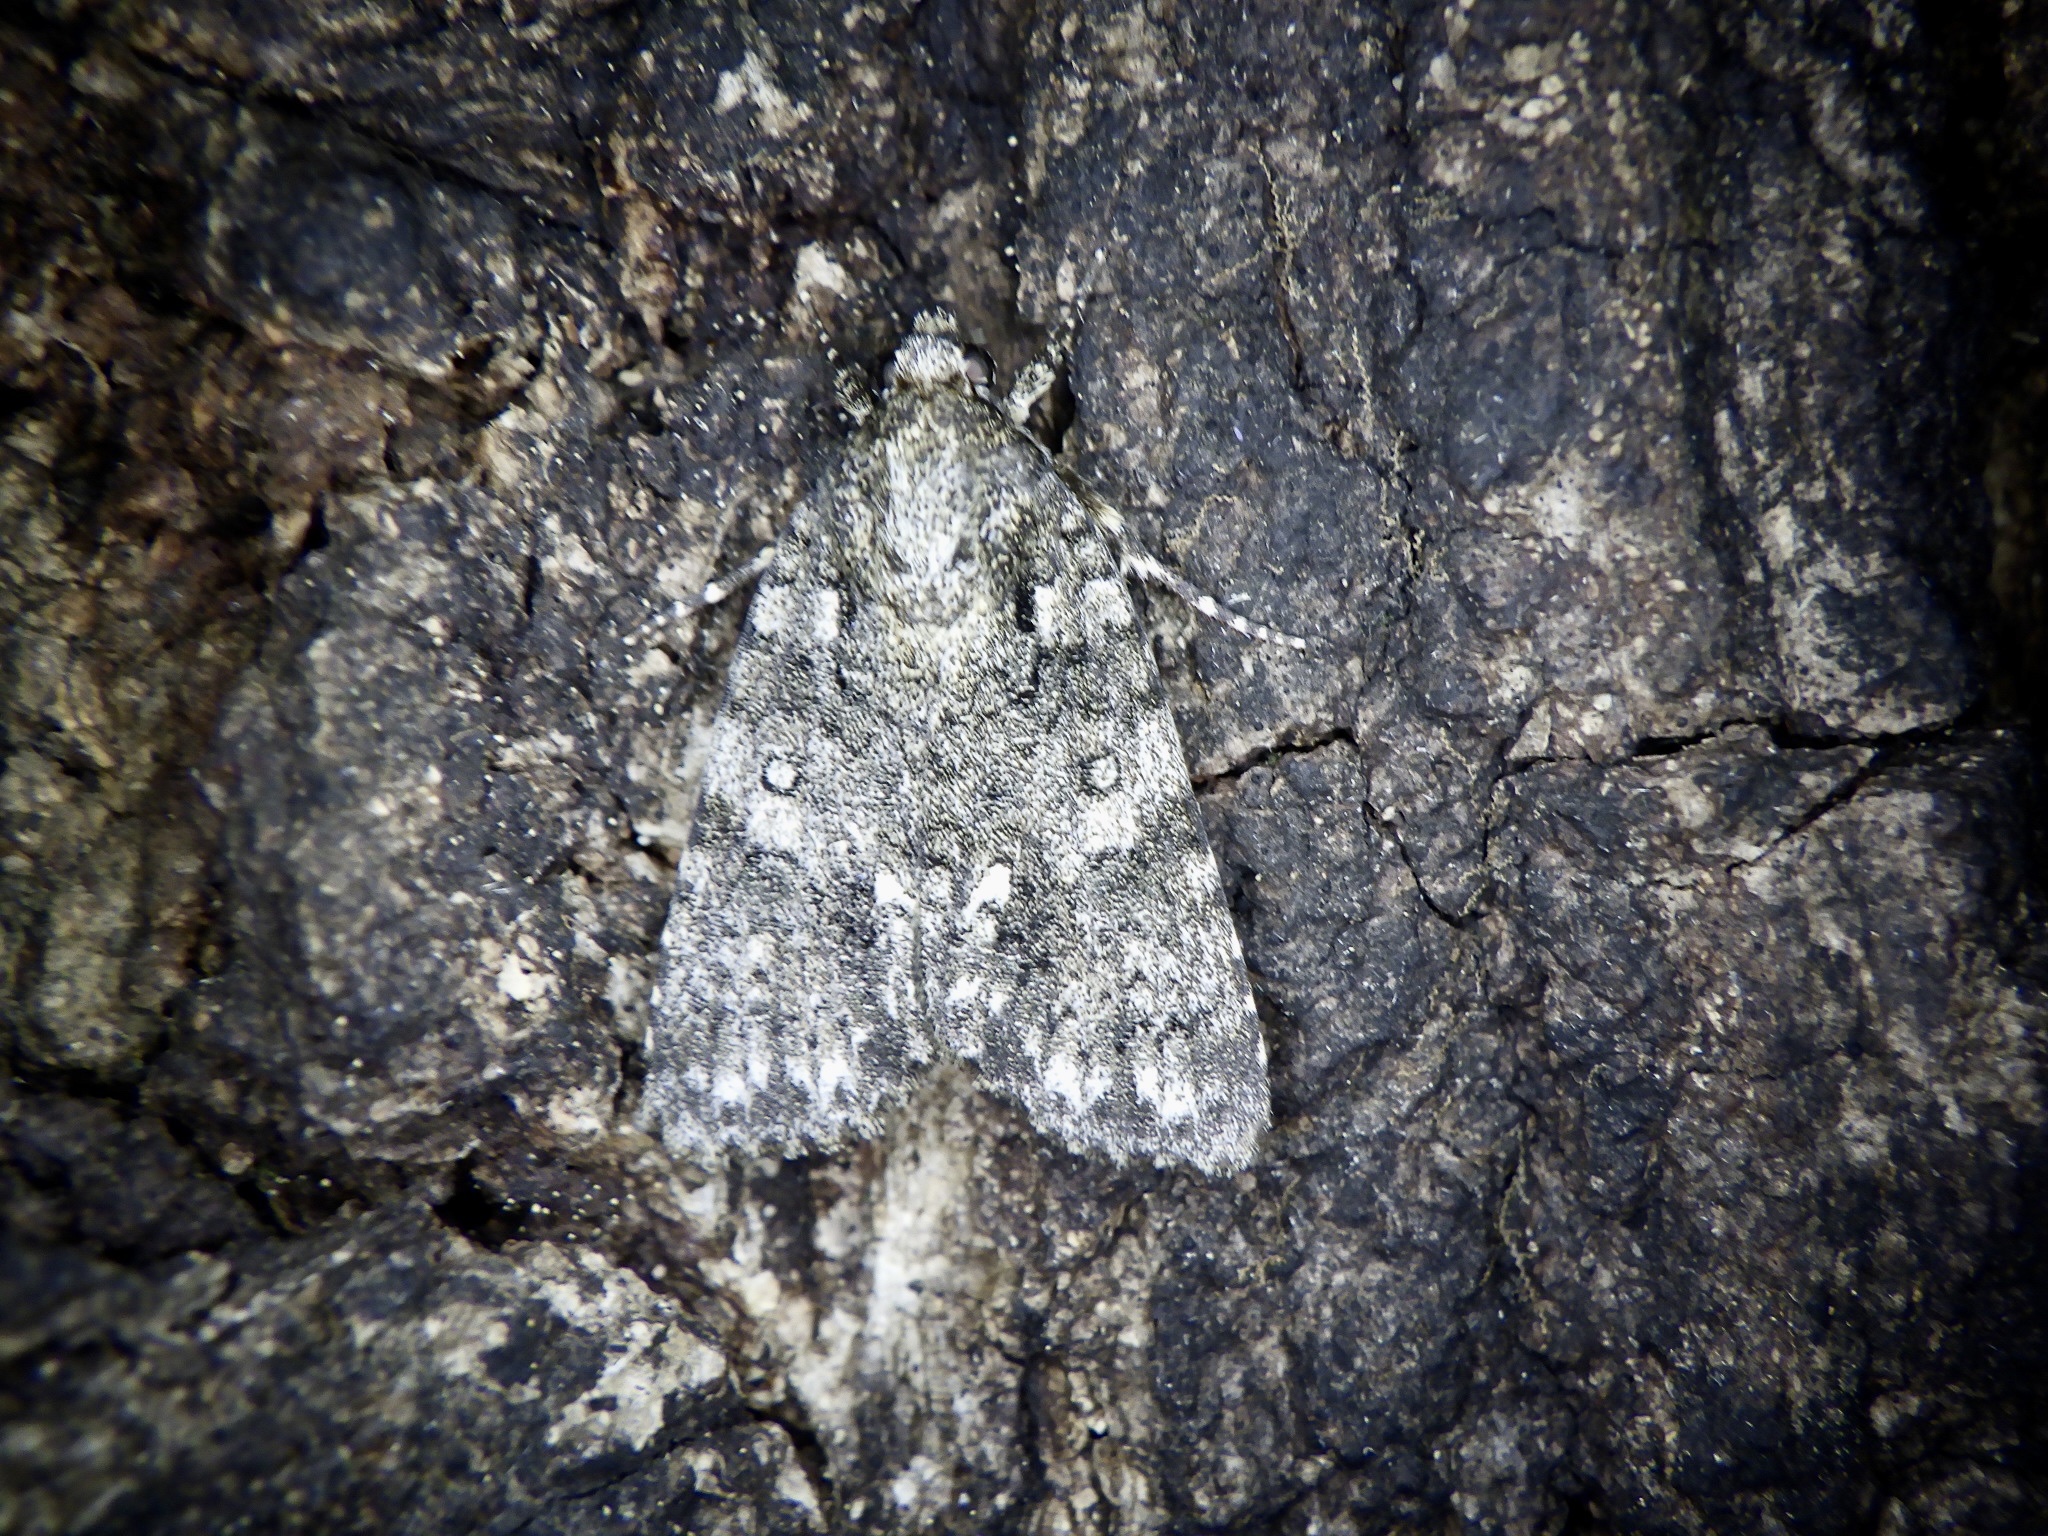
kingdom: Animalia
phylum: Arthropoda
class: Insecta
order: Lepidoptera
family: Noctuidae
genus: Acronicta
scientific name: Acronicta rumicis
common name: Knot grass
